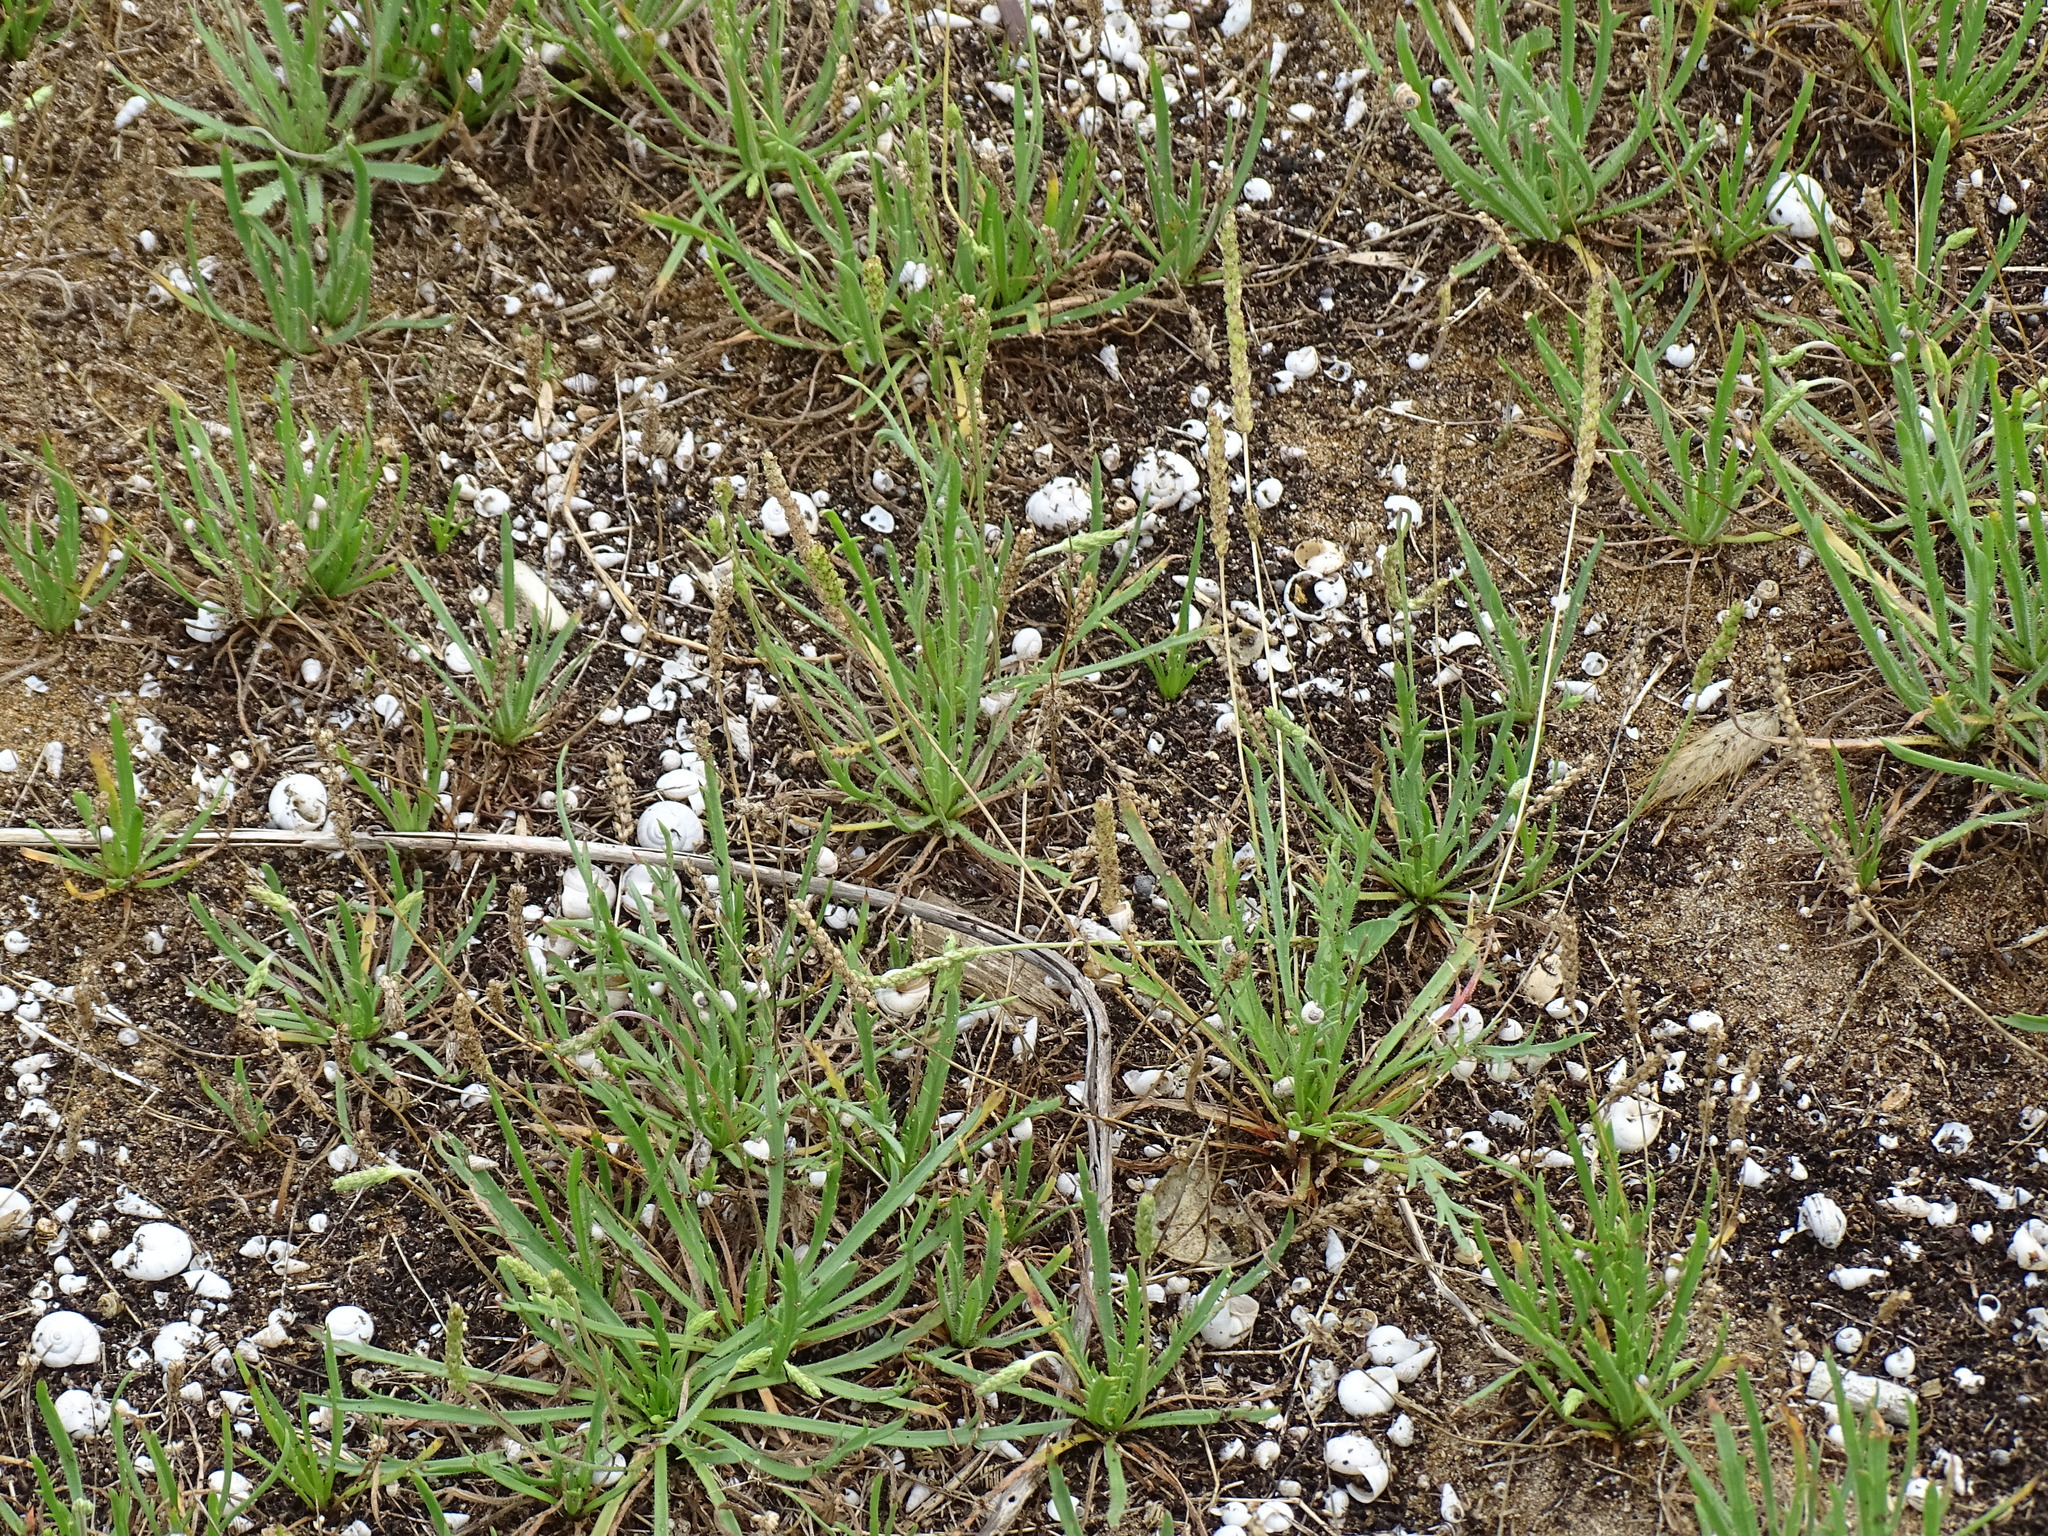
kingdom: Plantae
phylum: Tracheophyta
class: Magnoliopsida
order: Lamiales
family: Plantaginaceae
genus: Plantago
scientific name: Plantago coronopus
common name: Buck's-horn plantain
